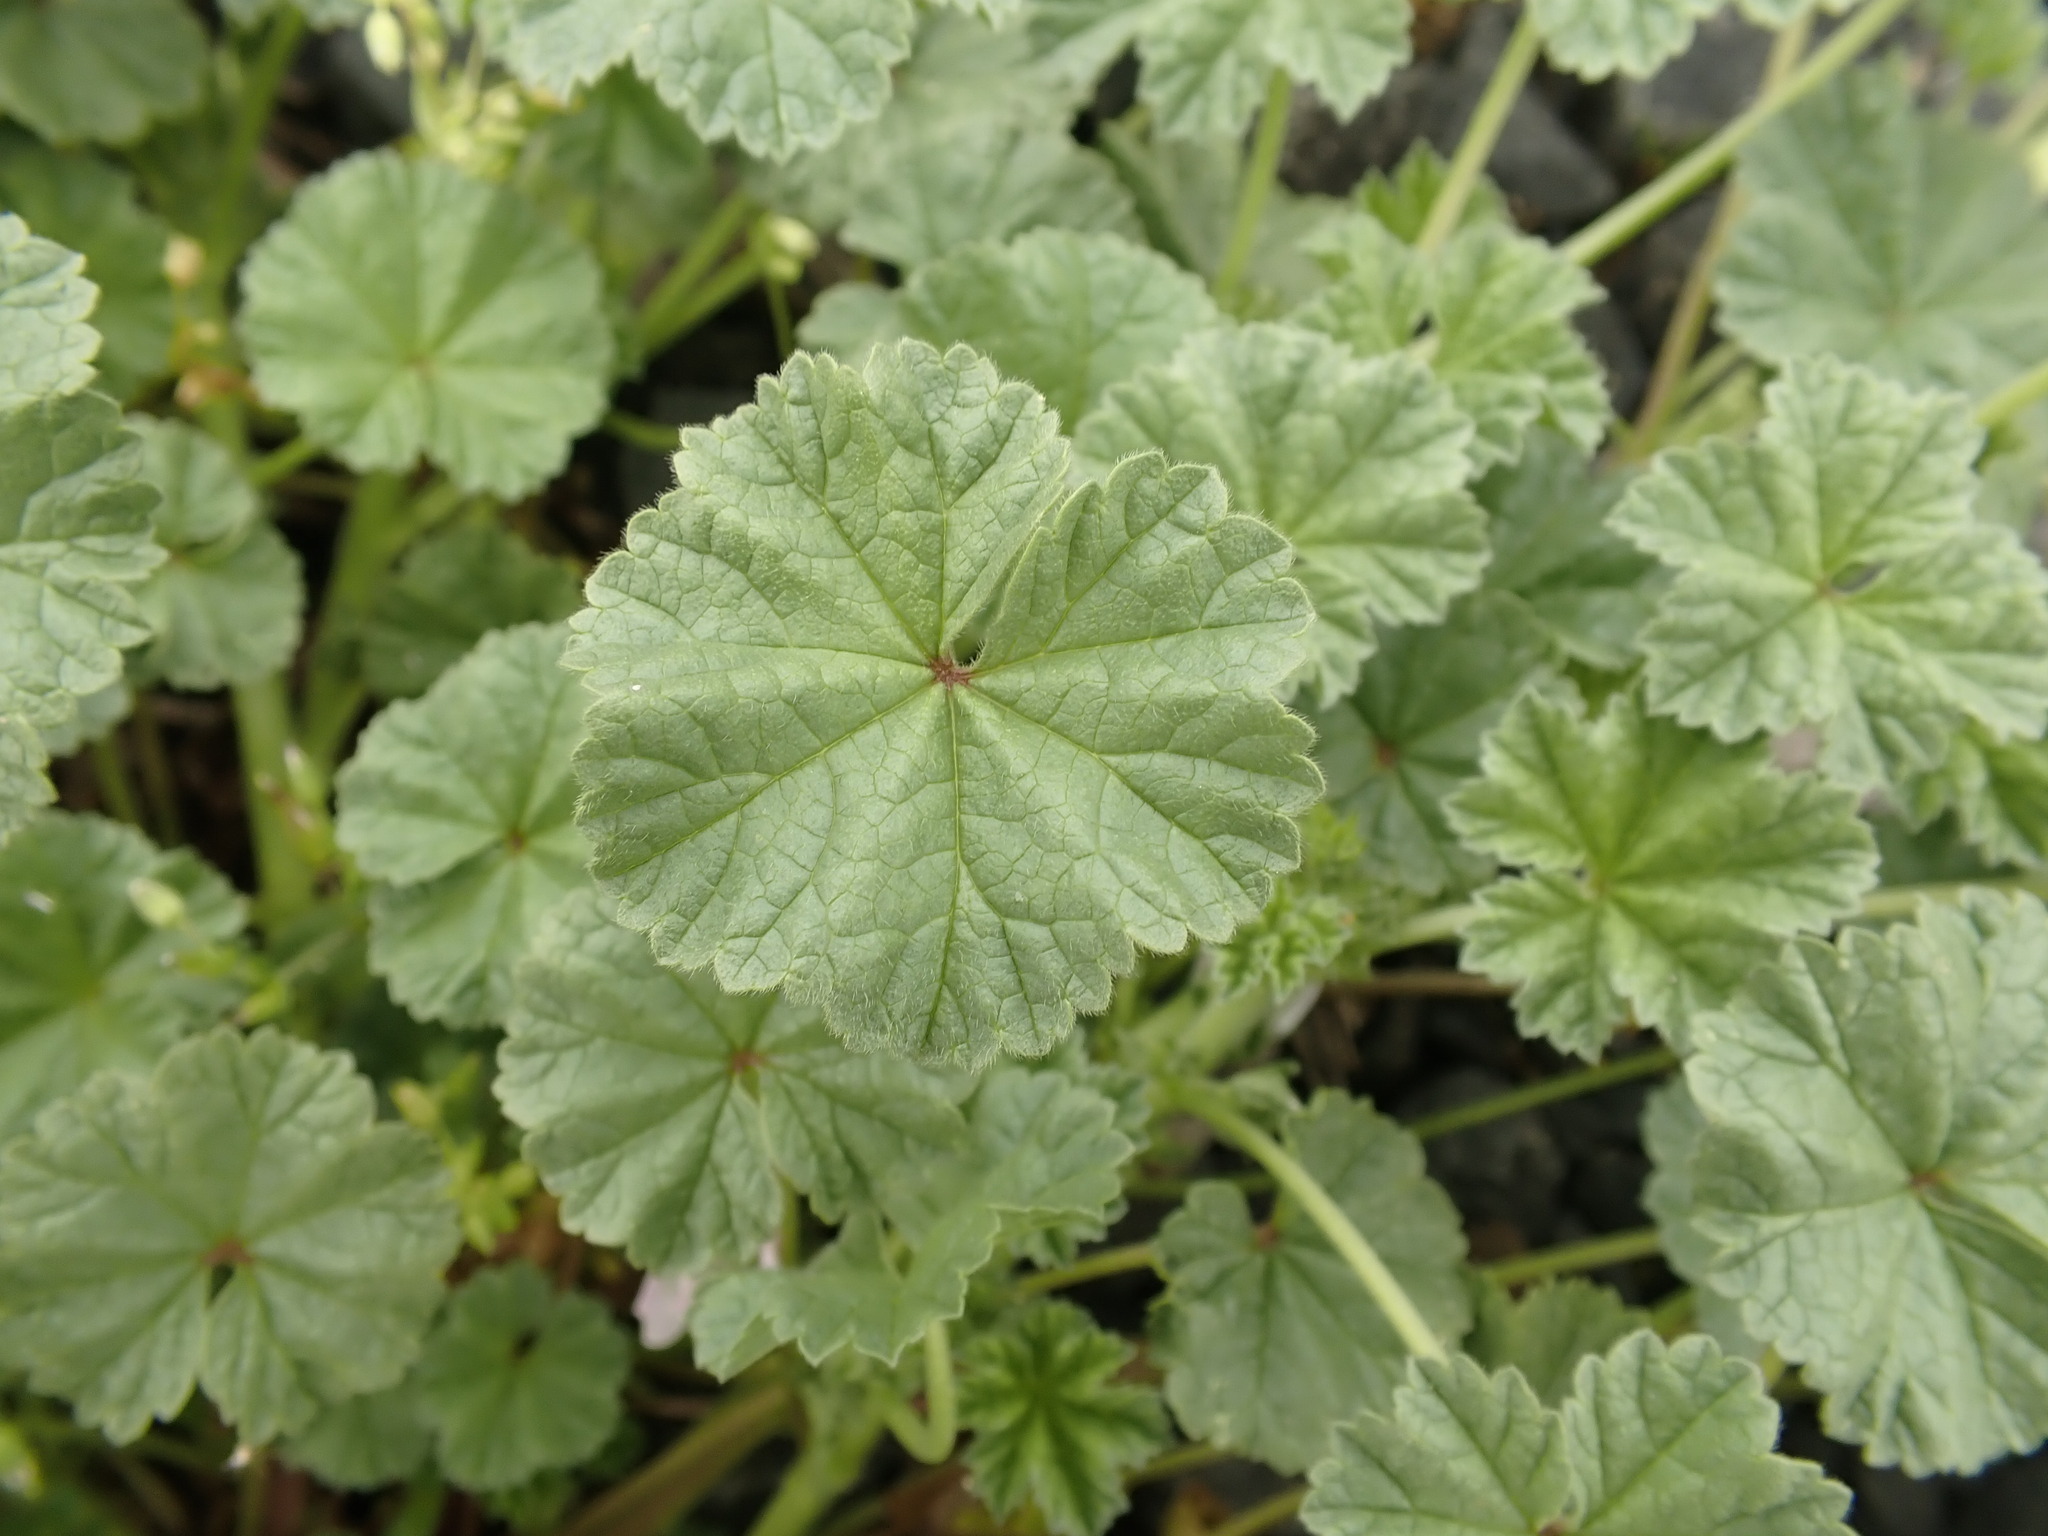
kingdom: Plantae
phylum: Tracheophyta
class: Magnoliopsida
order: Malvales
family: Malvaceae
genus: Malva
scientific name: Malva neglecta
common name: Common mallow
